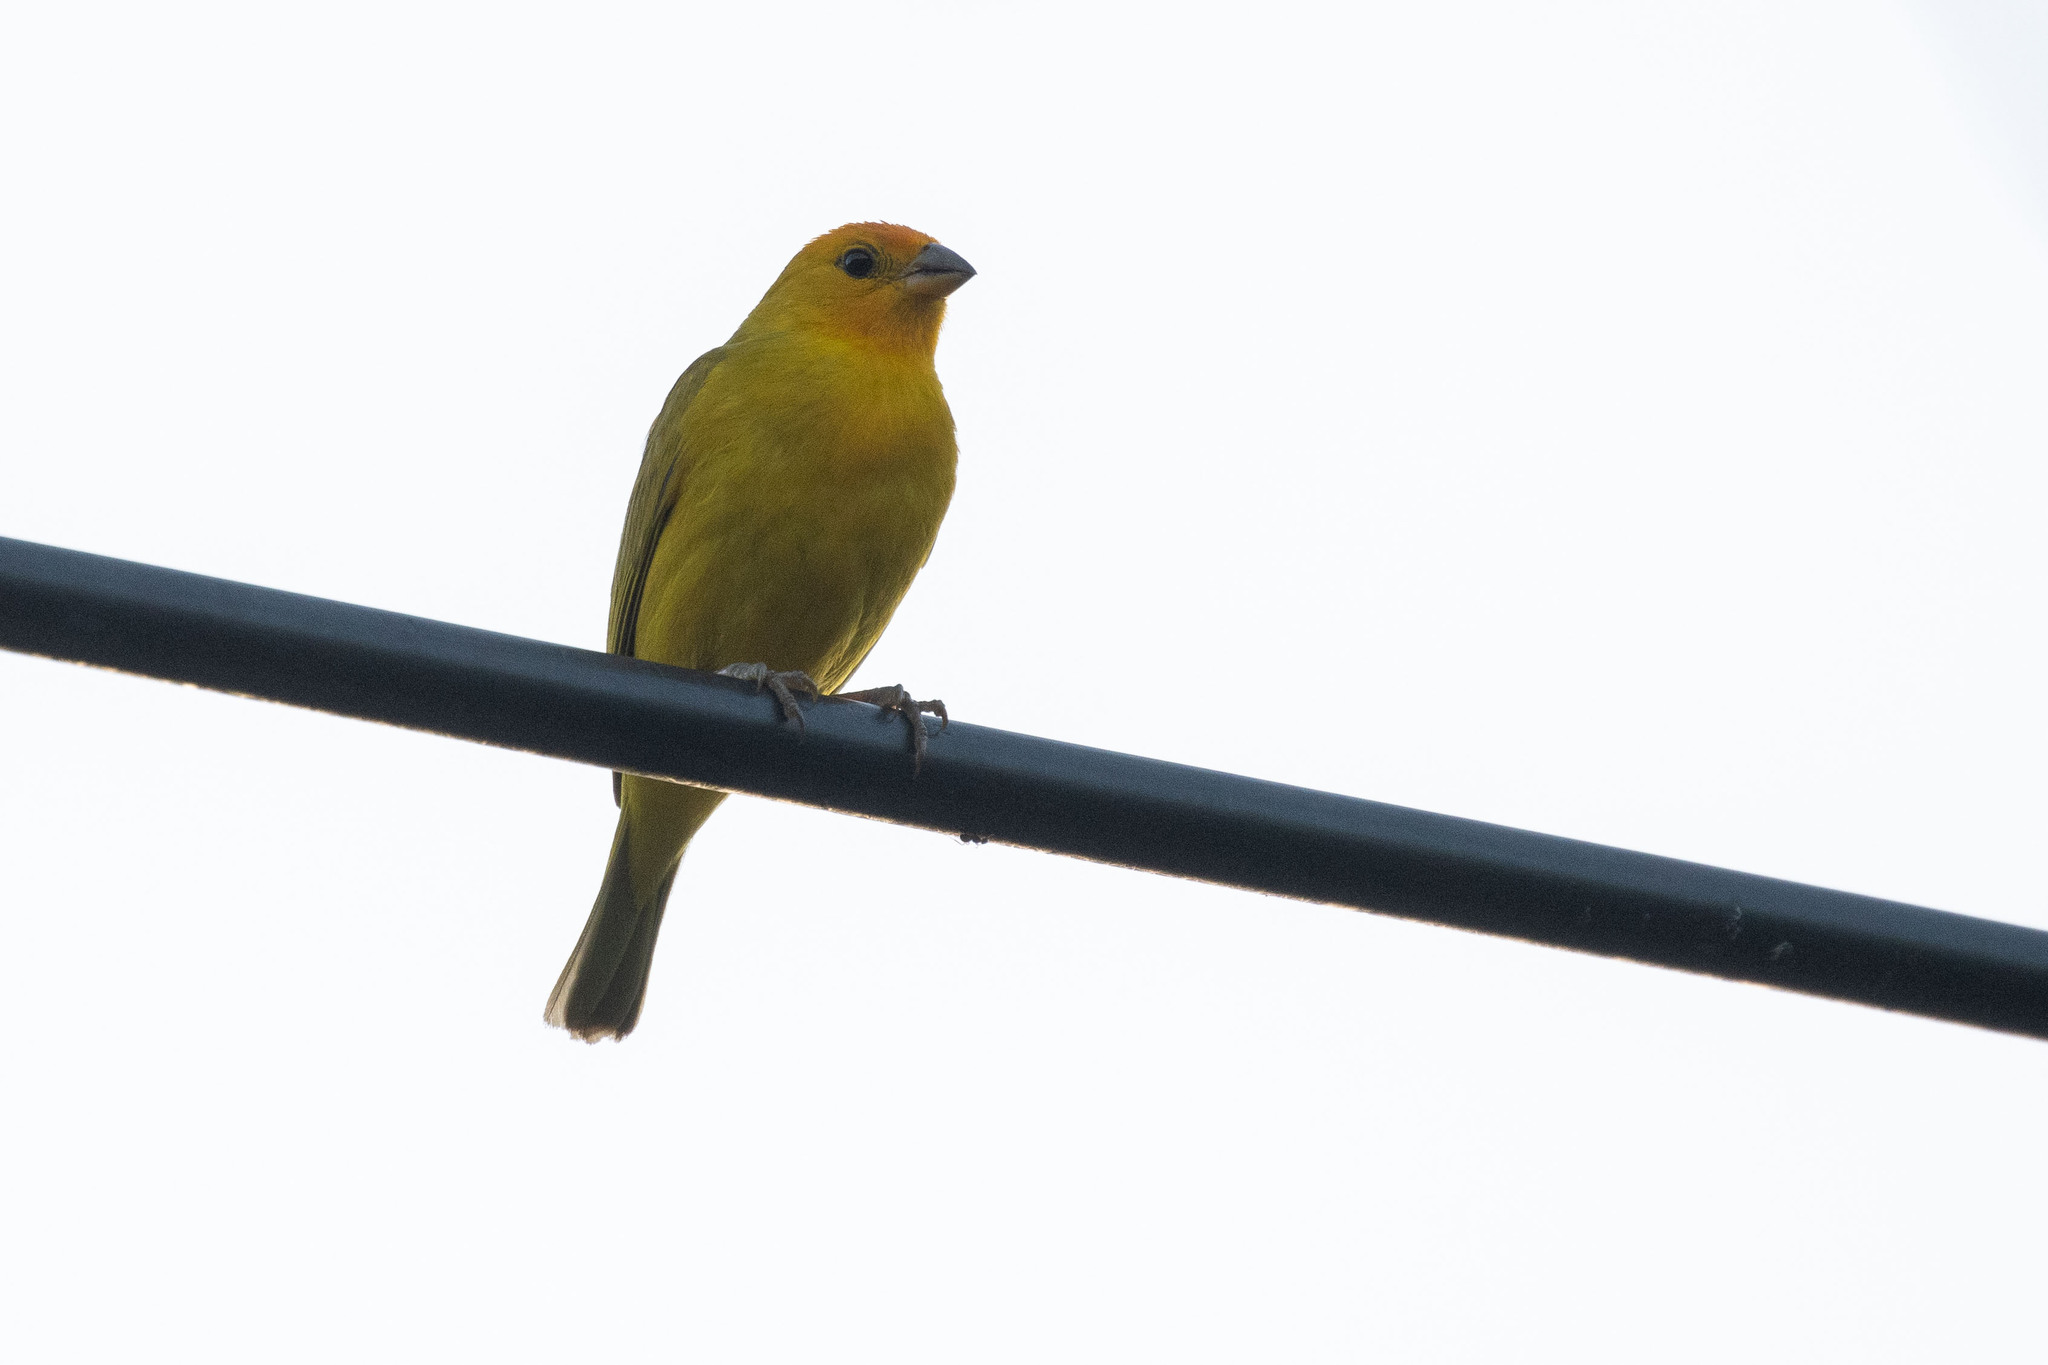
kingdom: Animalia
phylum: Chordata
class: Aves
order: Passeriformes
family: Thraupidae
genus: Sicalis
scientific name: Sicalis flaveola
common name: Saffron finch
